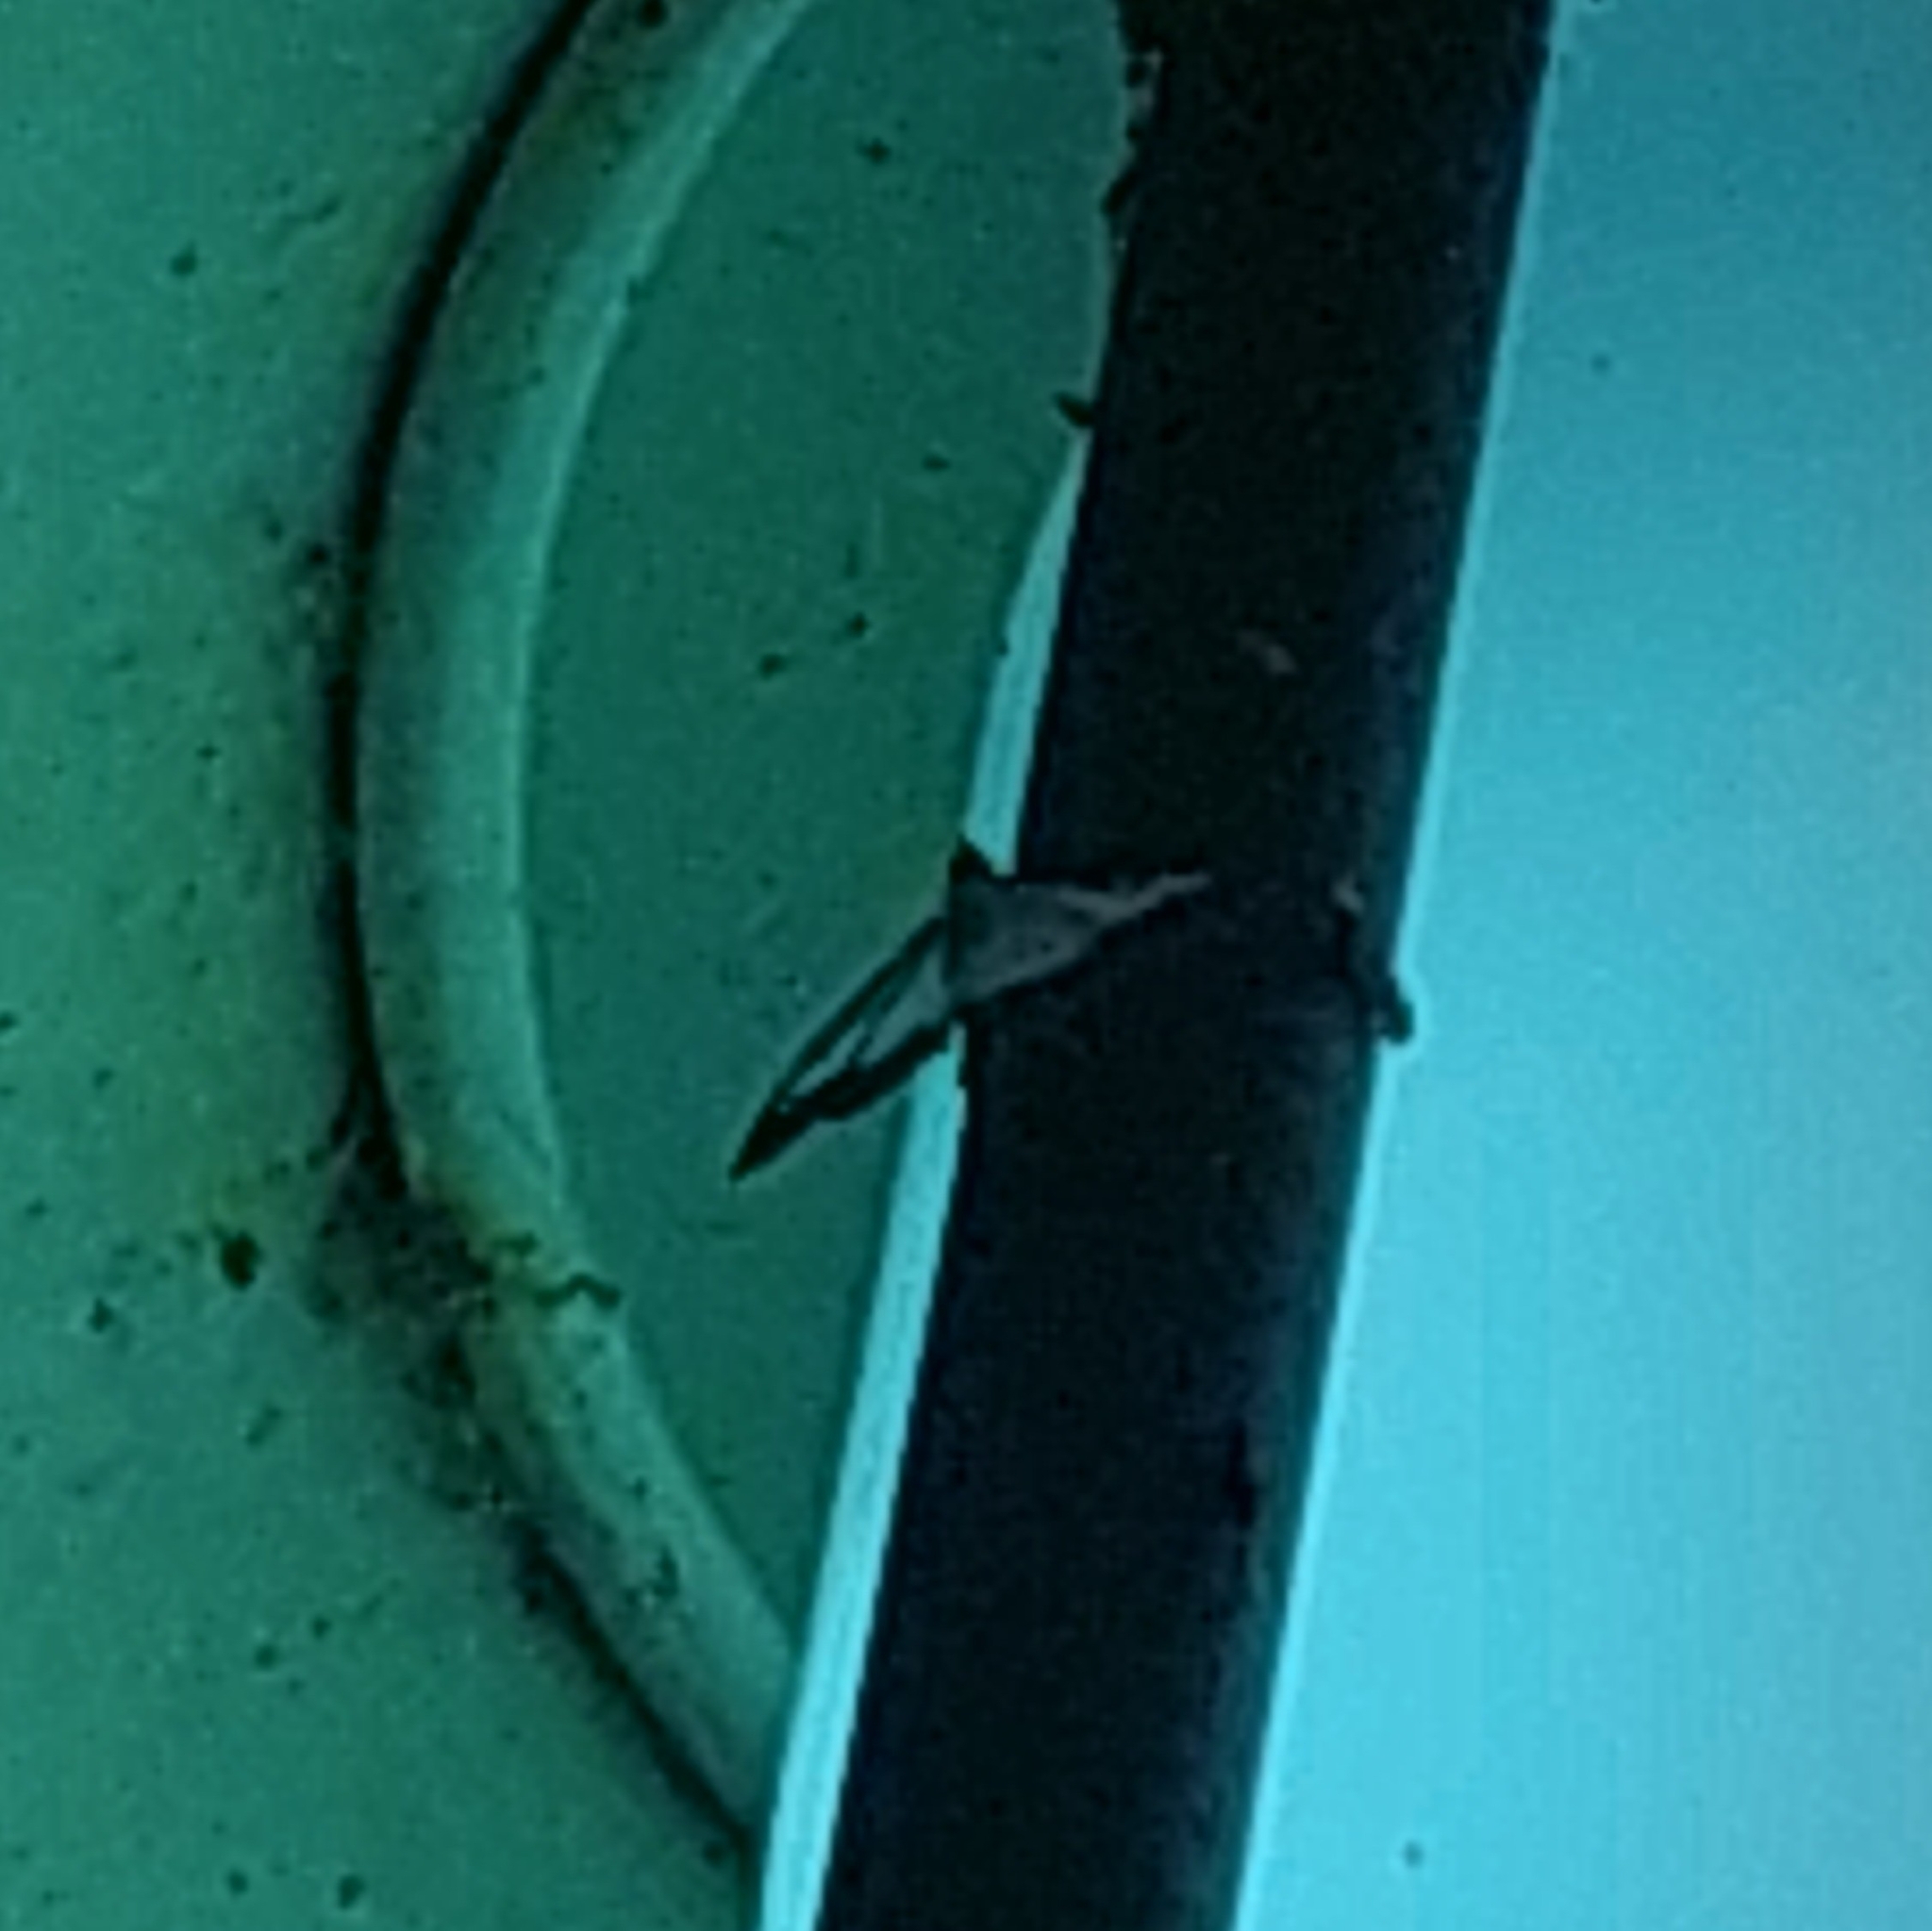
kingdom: Animalia
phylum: Arthropoda
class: Insecta
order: Lepidoptera
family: Crambidae
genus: Cydalima
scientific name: Cydalima perspectalis
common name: Box tree moth
